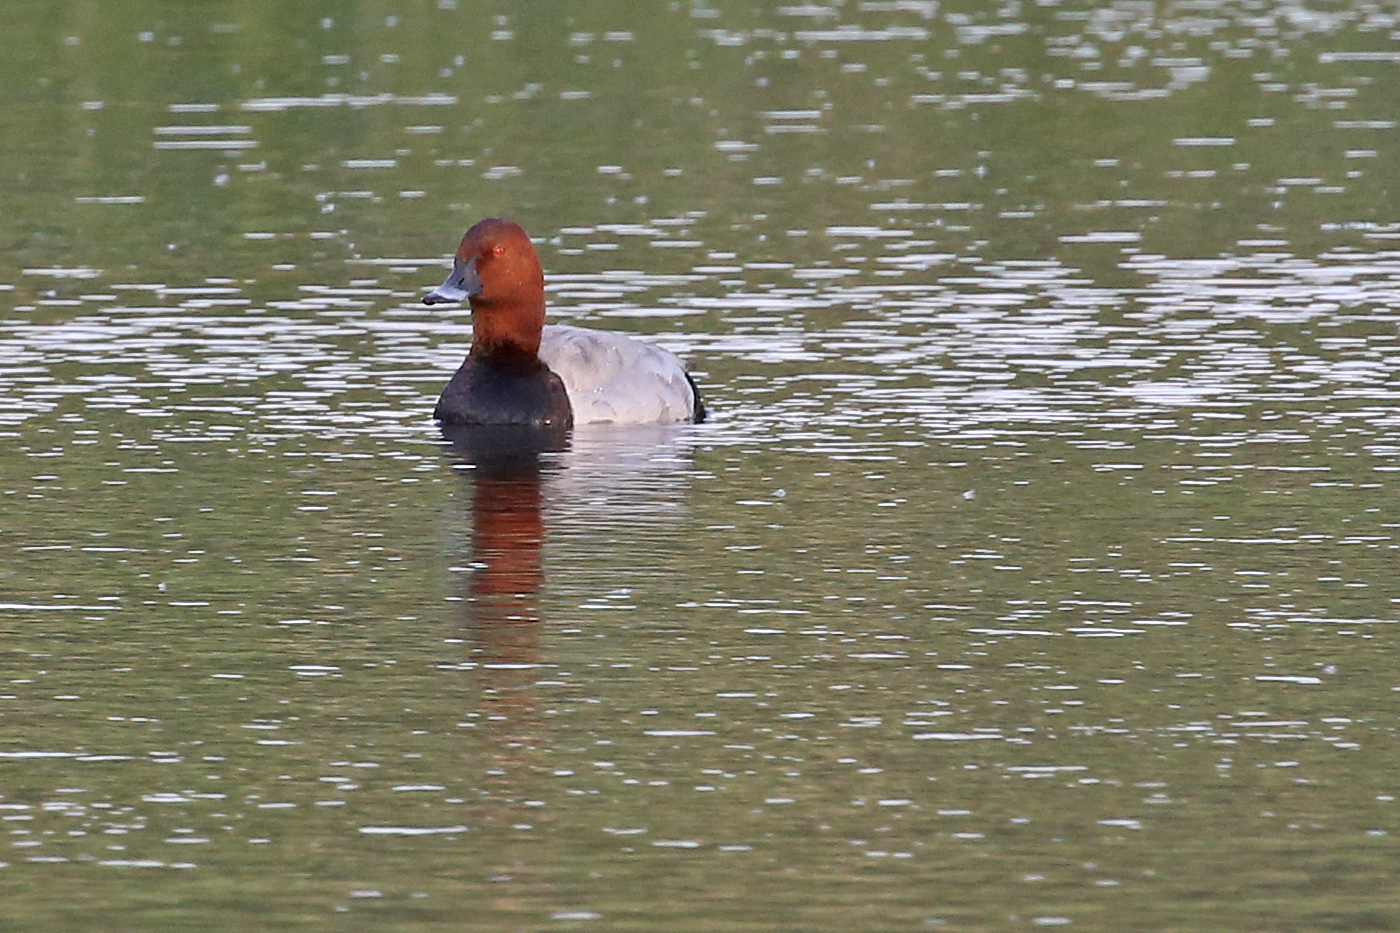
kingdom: Animalia
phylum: Chordata
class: Aves
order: Anseriformes
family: Anatidae
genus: Aythya
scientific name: Aythya ferina
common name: Common pochard
